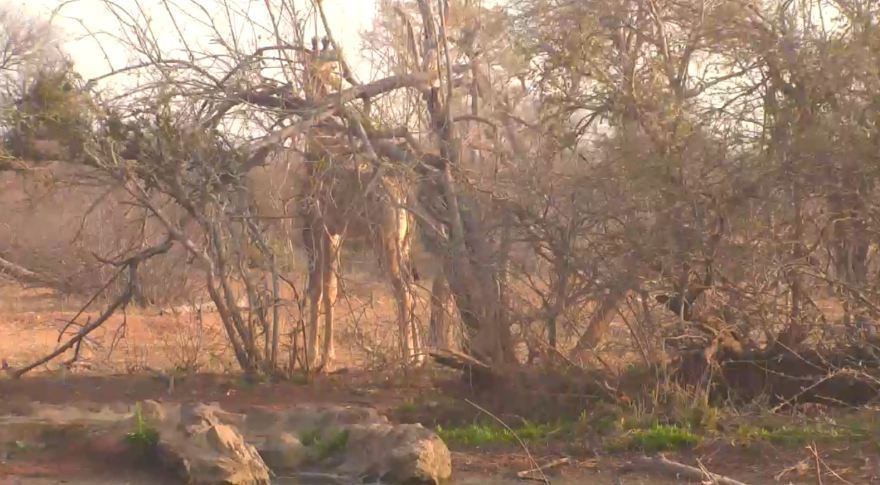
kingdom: Animalia
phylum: Chordata
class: Mammalia
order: Artiodactyla
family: Giraffidae
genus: Giraffa
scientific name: Giraffa giraffa
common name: Southern giraffe
